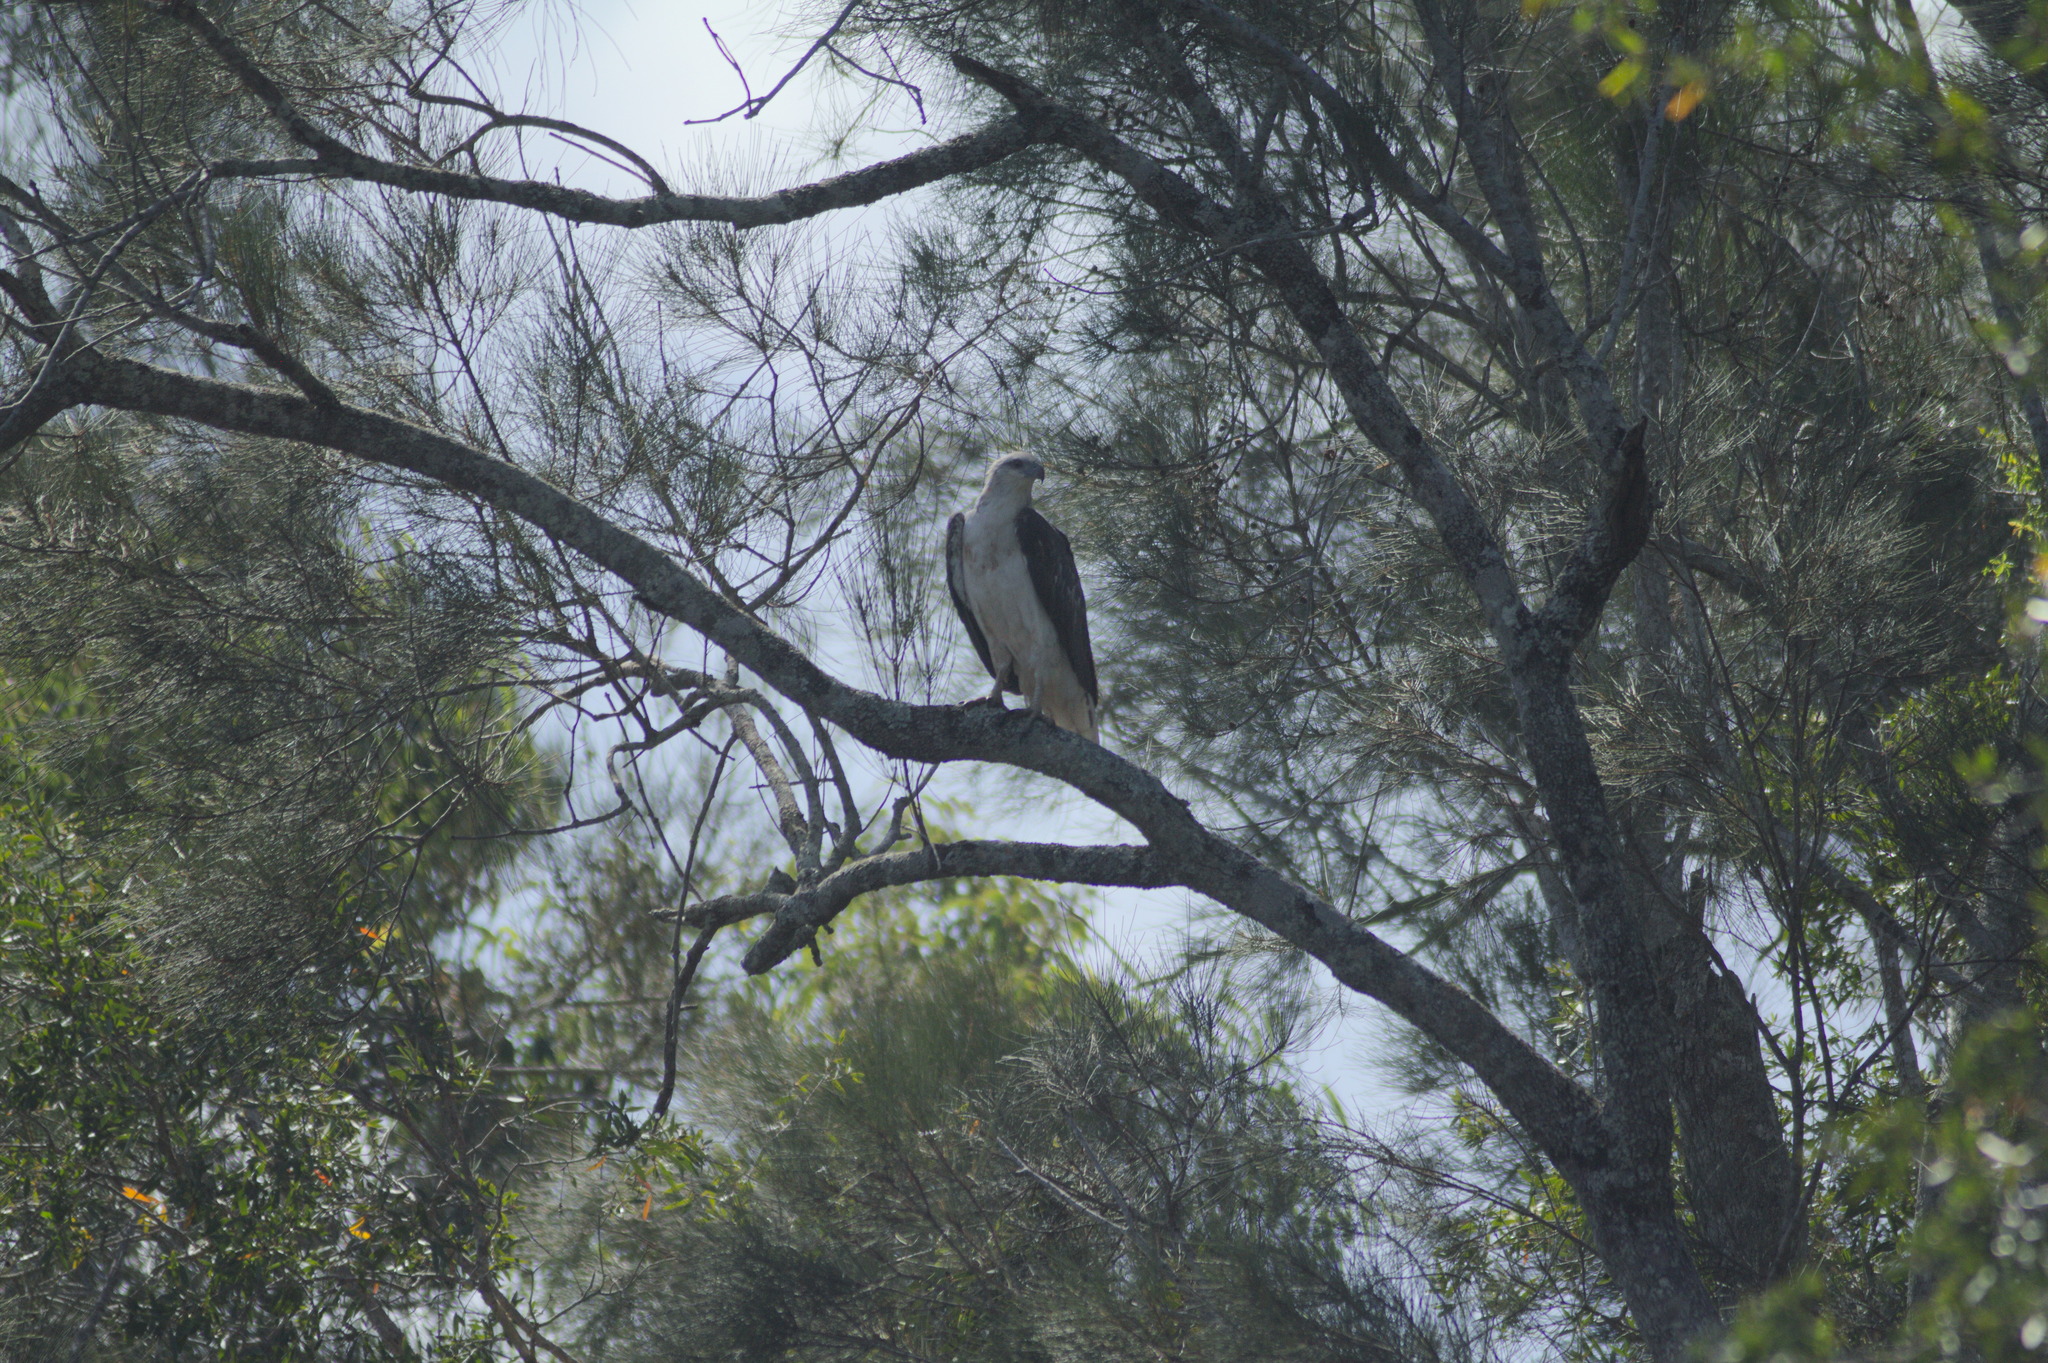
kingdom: Animalia
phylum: Chordata
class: Aves
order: Accipitriformes
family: Accipitridae
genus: Haliaeetus
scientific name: Haliaeetus leucogaster
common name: White-bellied sea eagle
